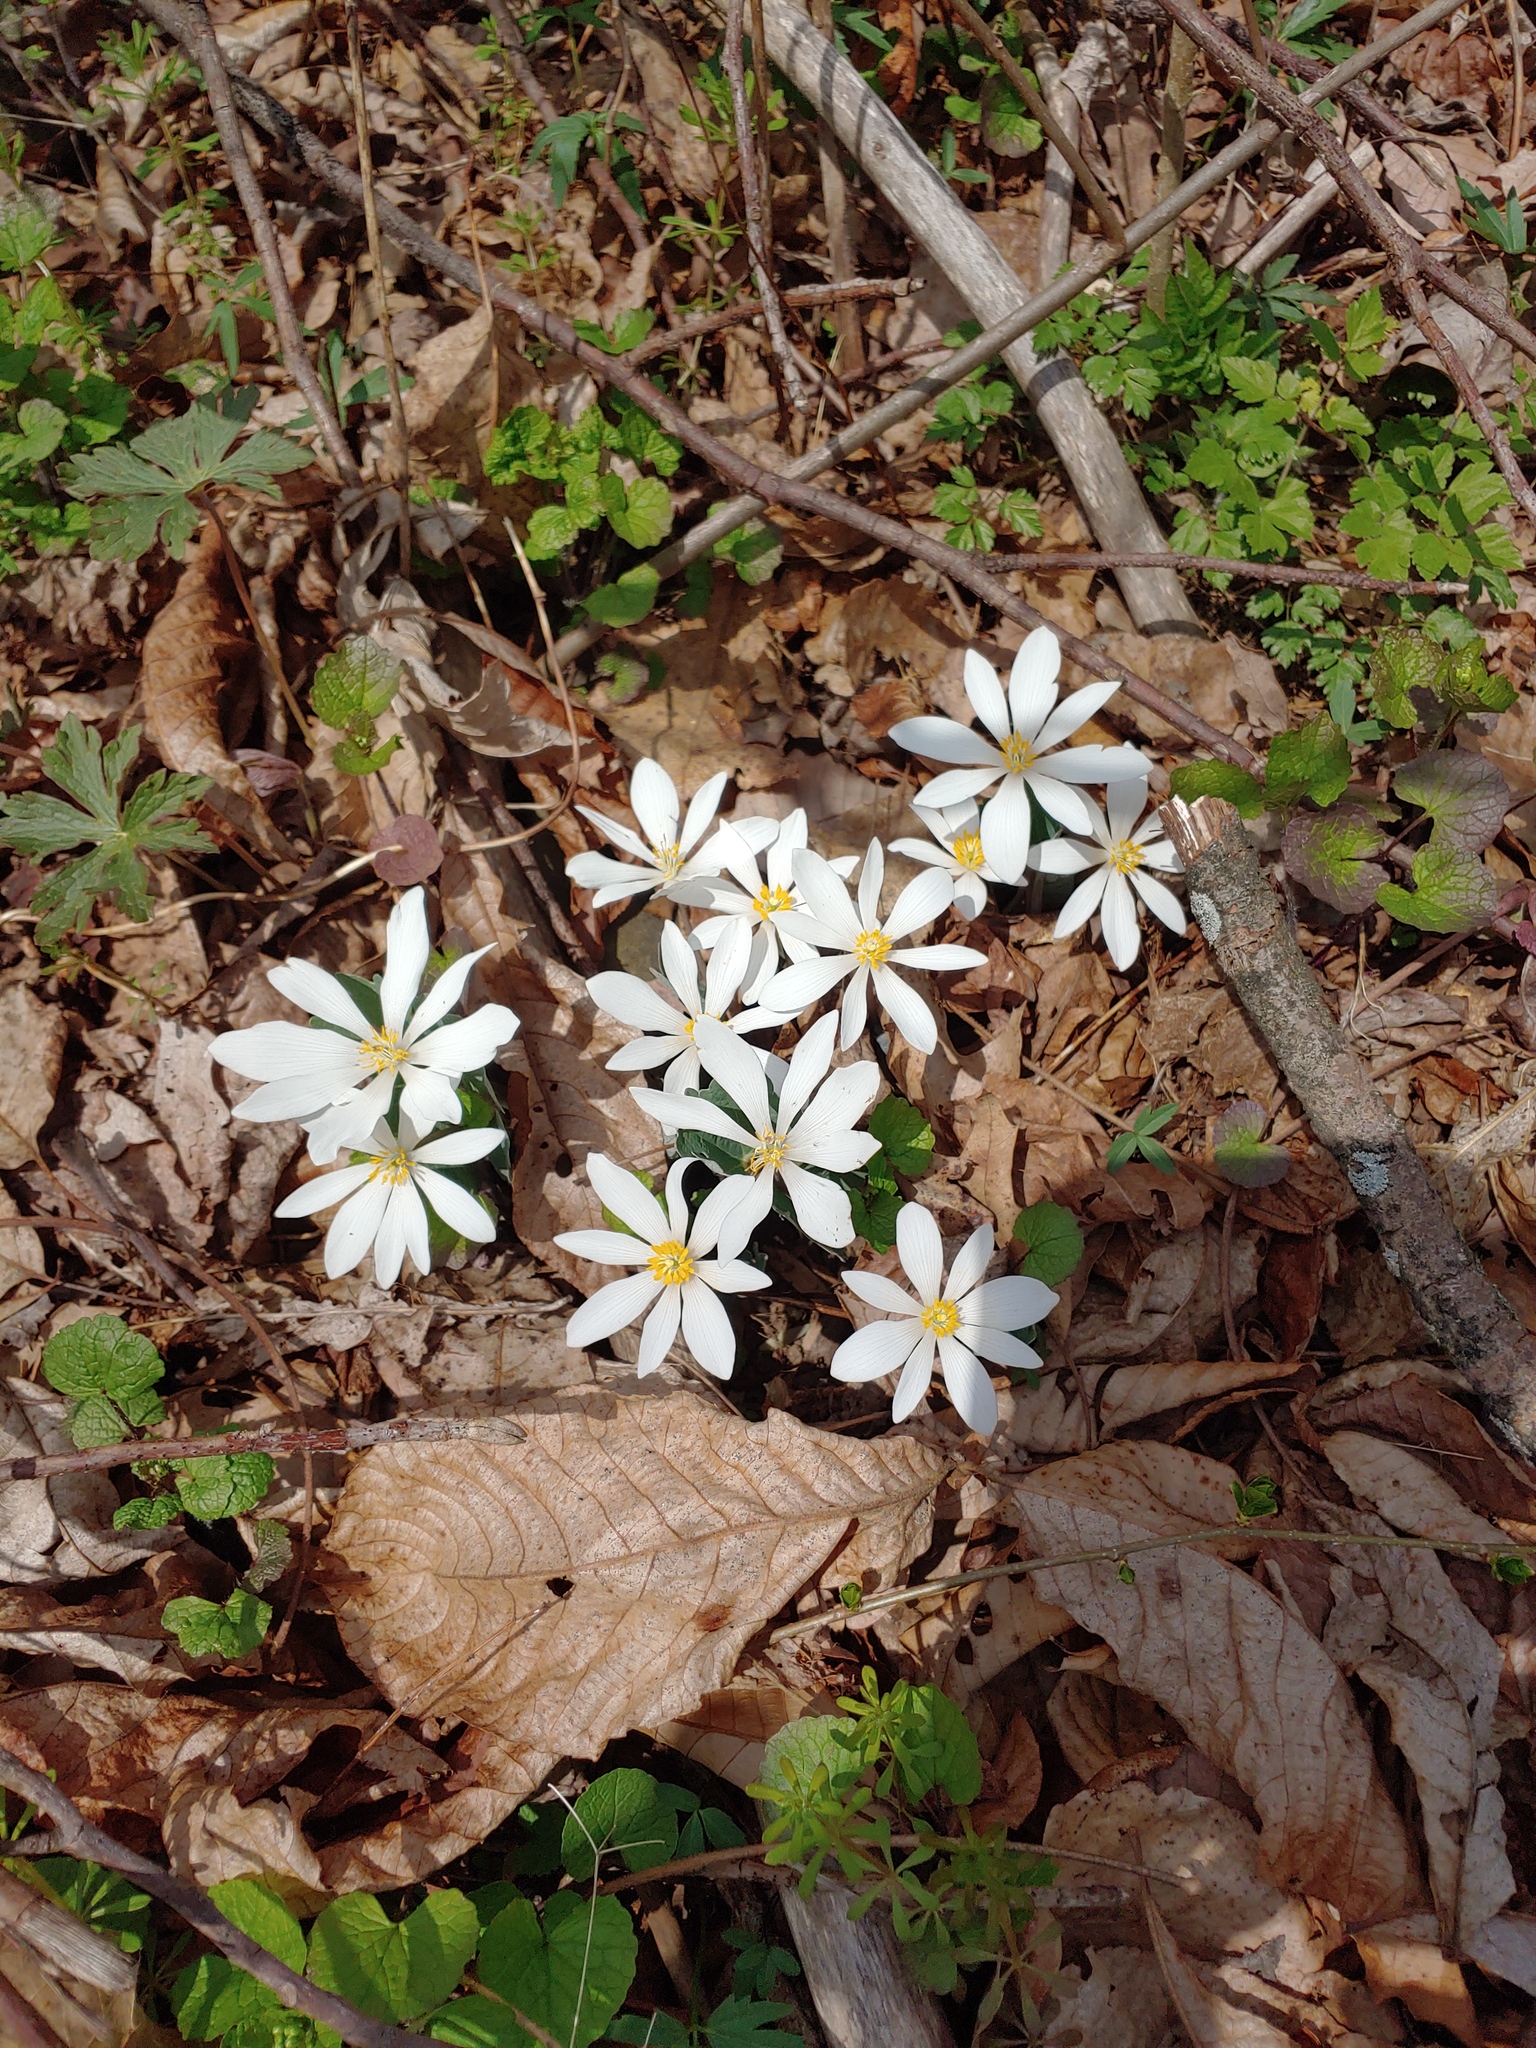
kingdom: Plantae
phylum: Tracheophyta
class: Magnoliopsida
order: Ranunculales
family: Papaveraceae
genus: Sanguinaria
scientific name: Sanguinaria canadensis
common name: Bloodroot
